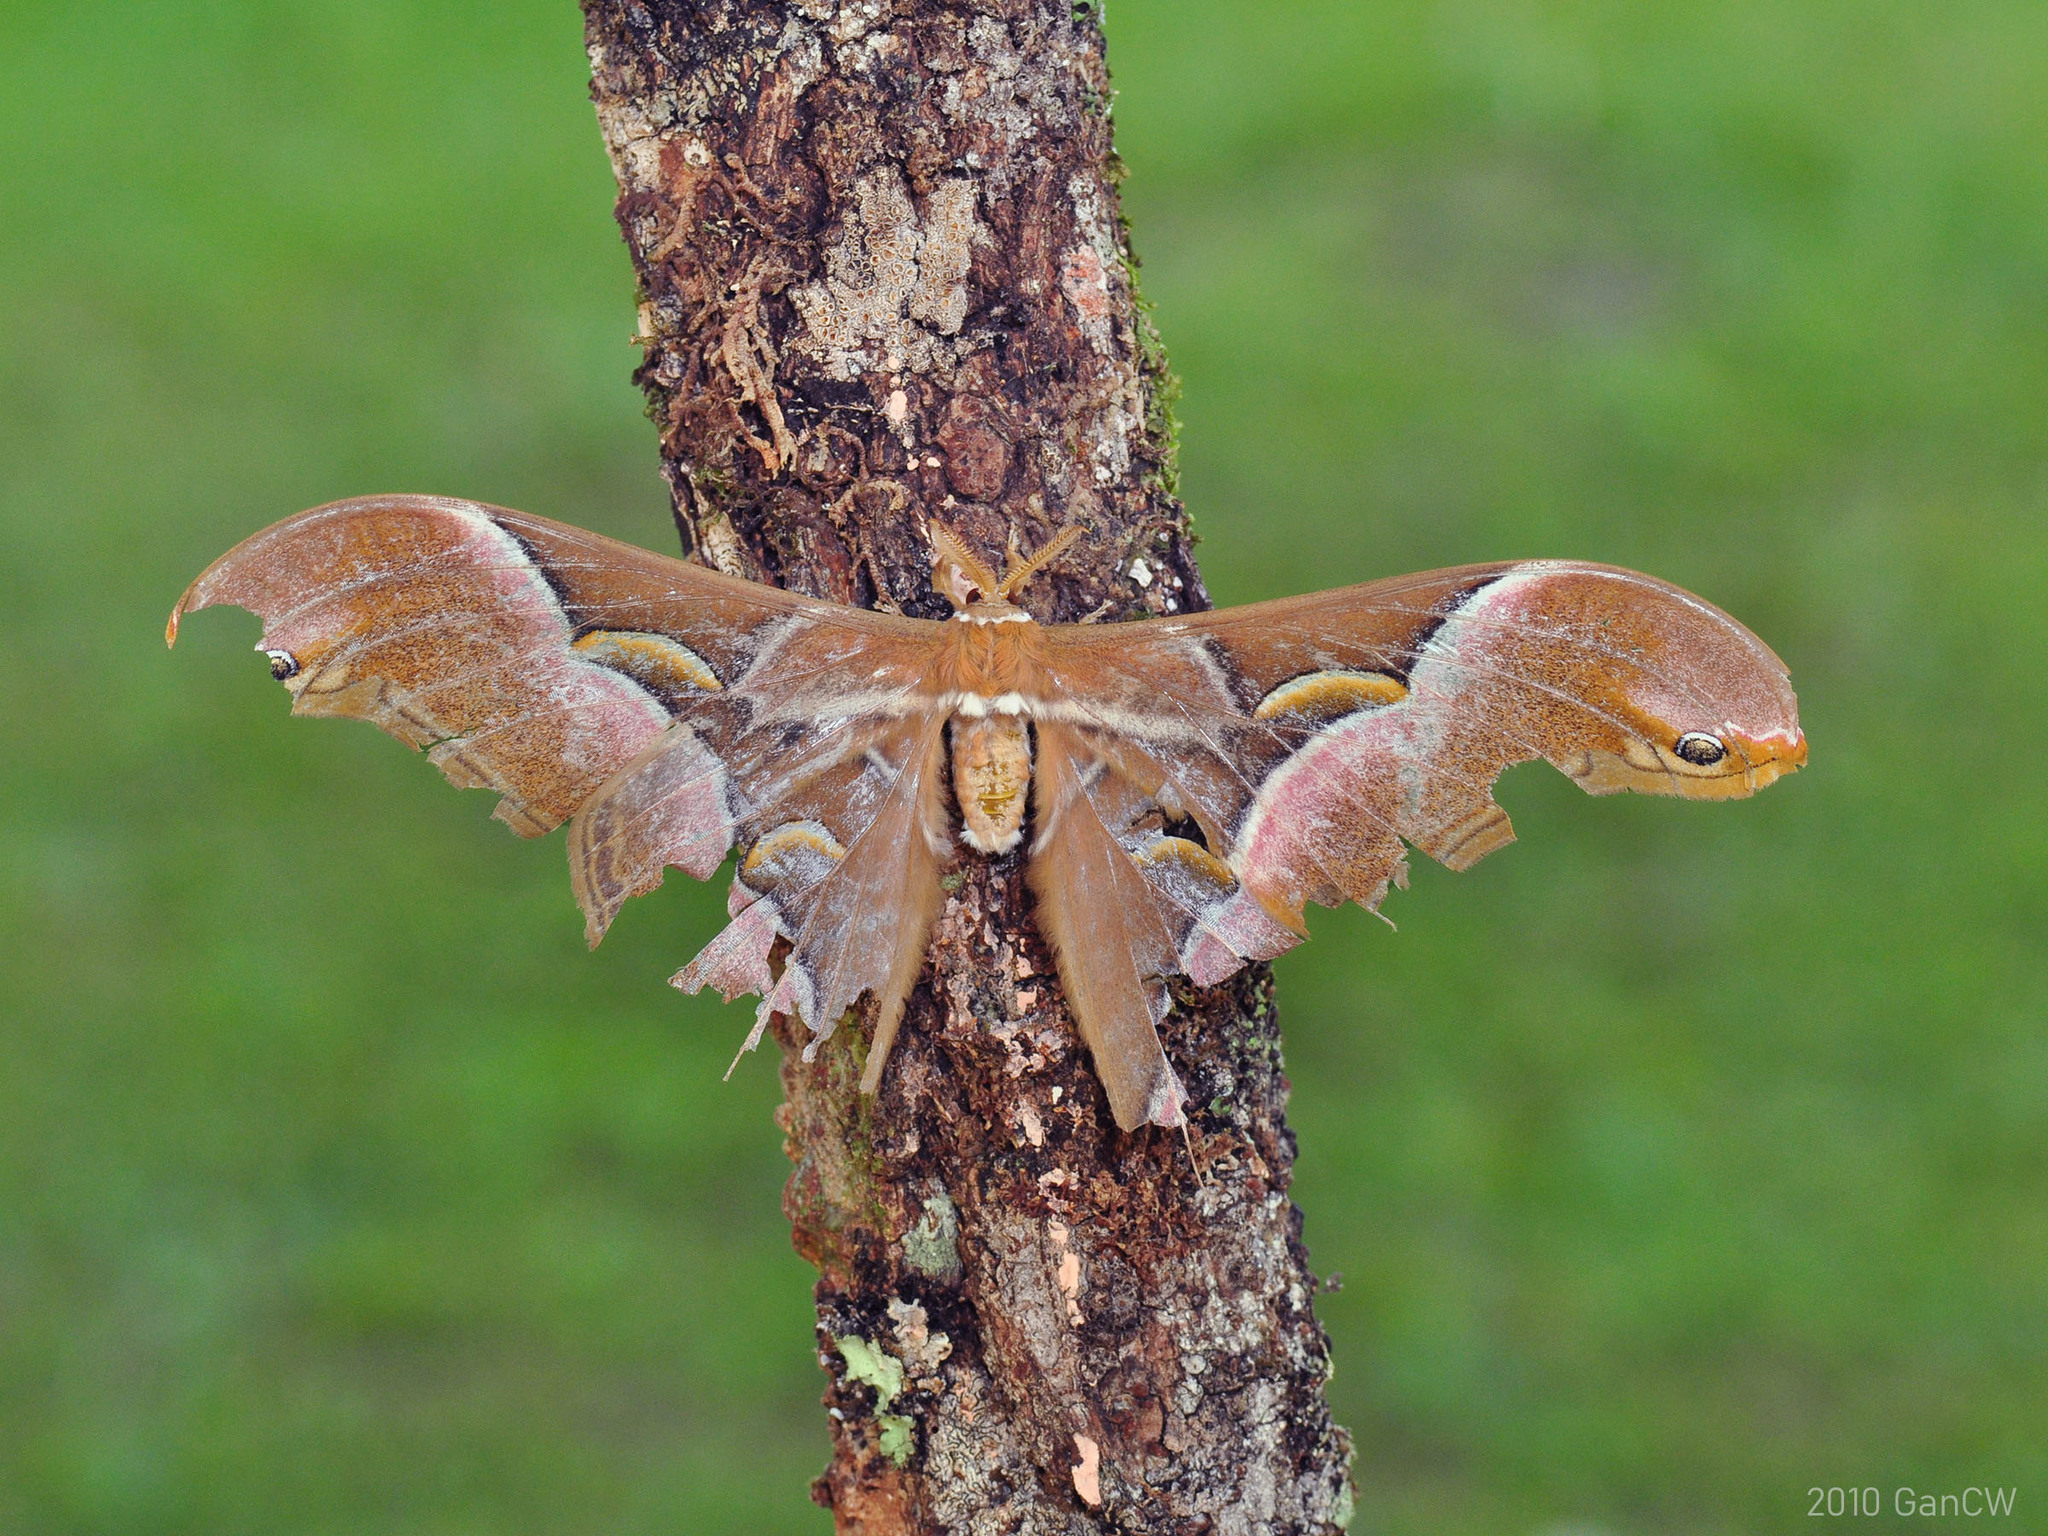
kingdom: Animalia
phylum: Arthropoda
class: Insecta
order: Lepidoptera
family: Saturniidae
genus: Samia
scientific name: Samia kohlli
